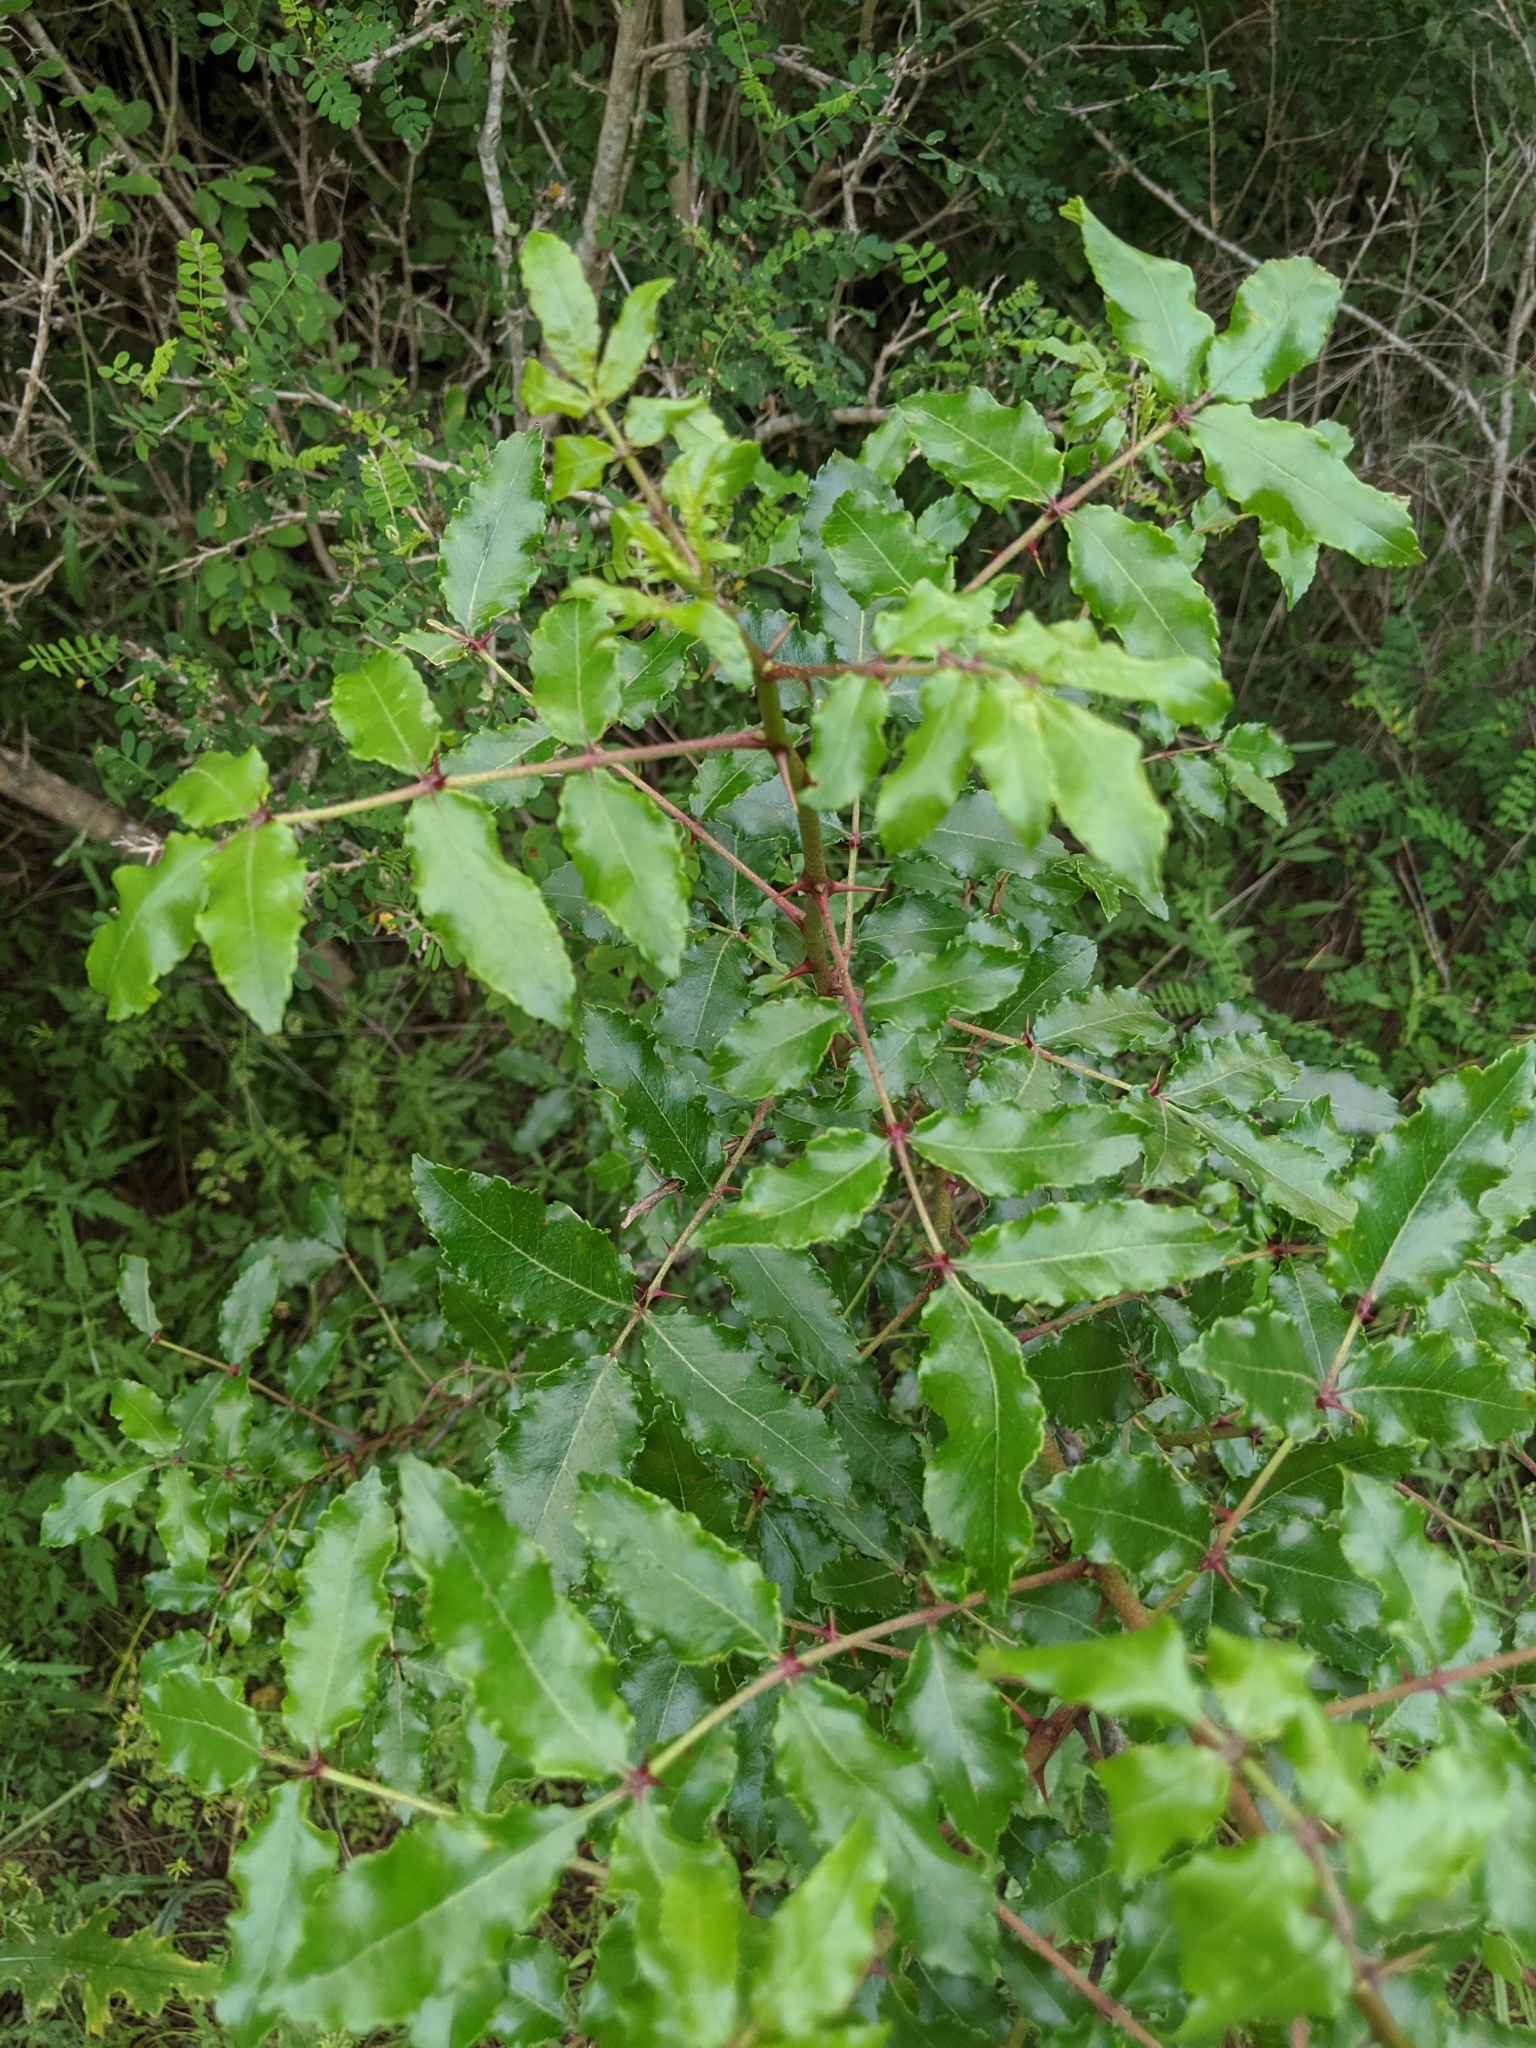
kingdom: Plantae
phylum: Tracheophyta
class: Magnoliopsida
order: Sapindales
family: Rutaceae
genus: Zanthoxylum
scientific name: Zanthoxylum clava-herculis
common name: Hercules'-club
